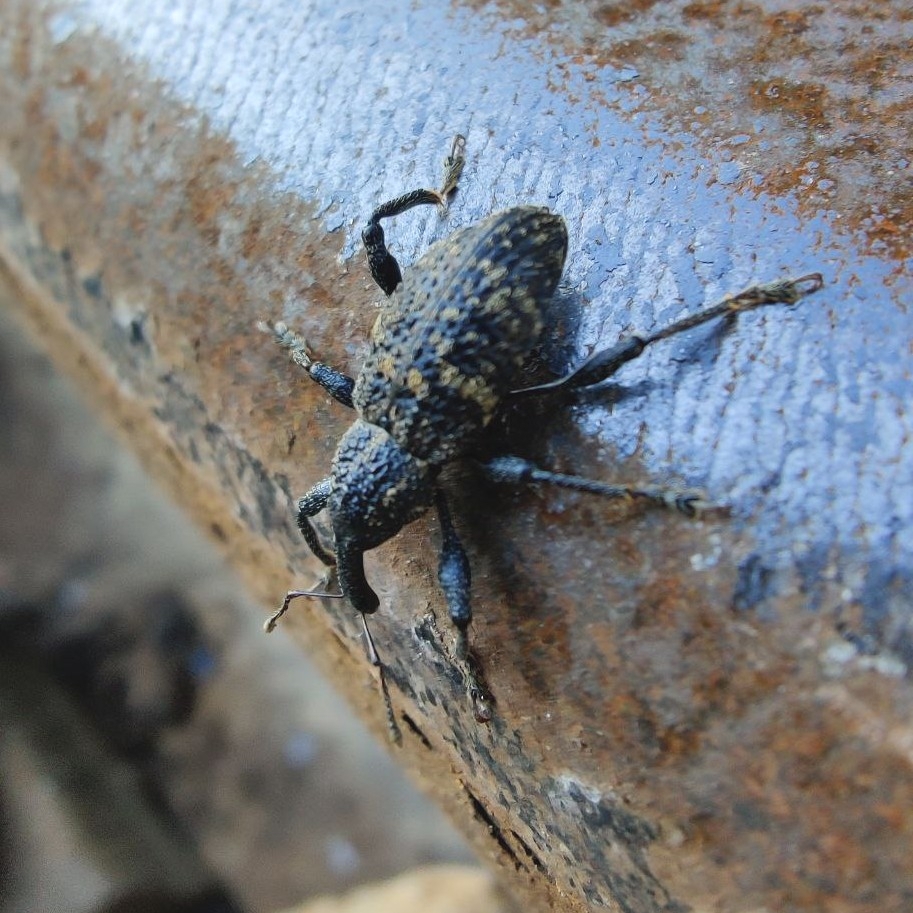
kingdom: Animalia
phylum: Arthropoda
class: Insecta
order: Coleoptera
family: Curculionidae
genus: Pimelocerus
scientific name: Pimelocerus orientalis
